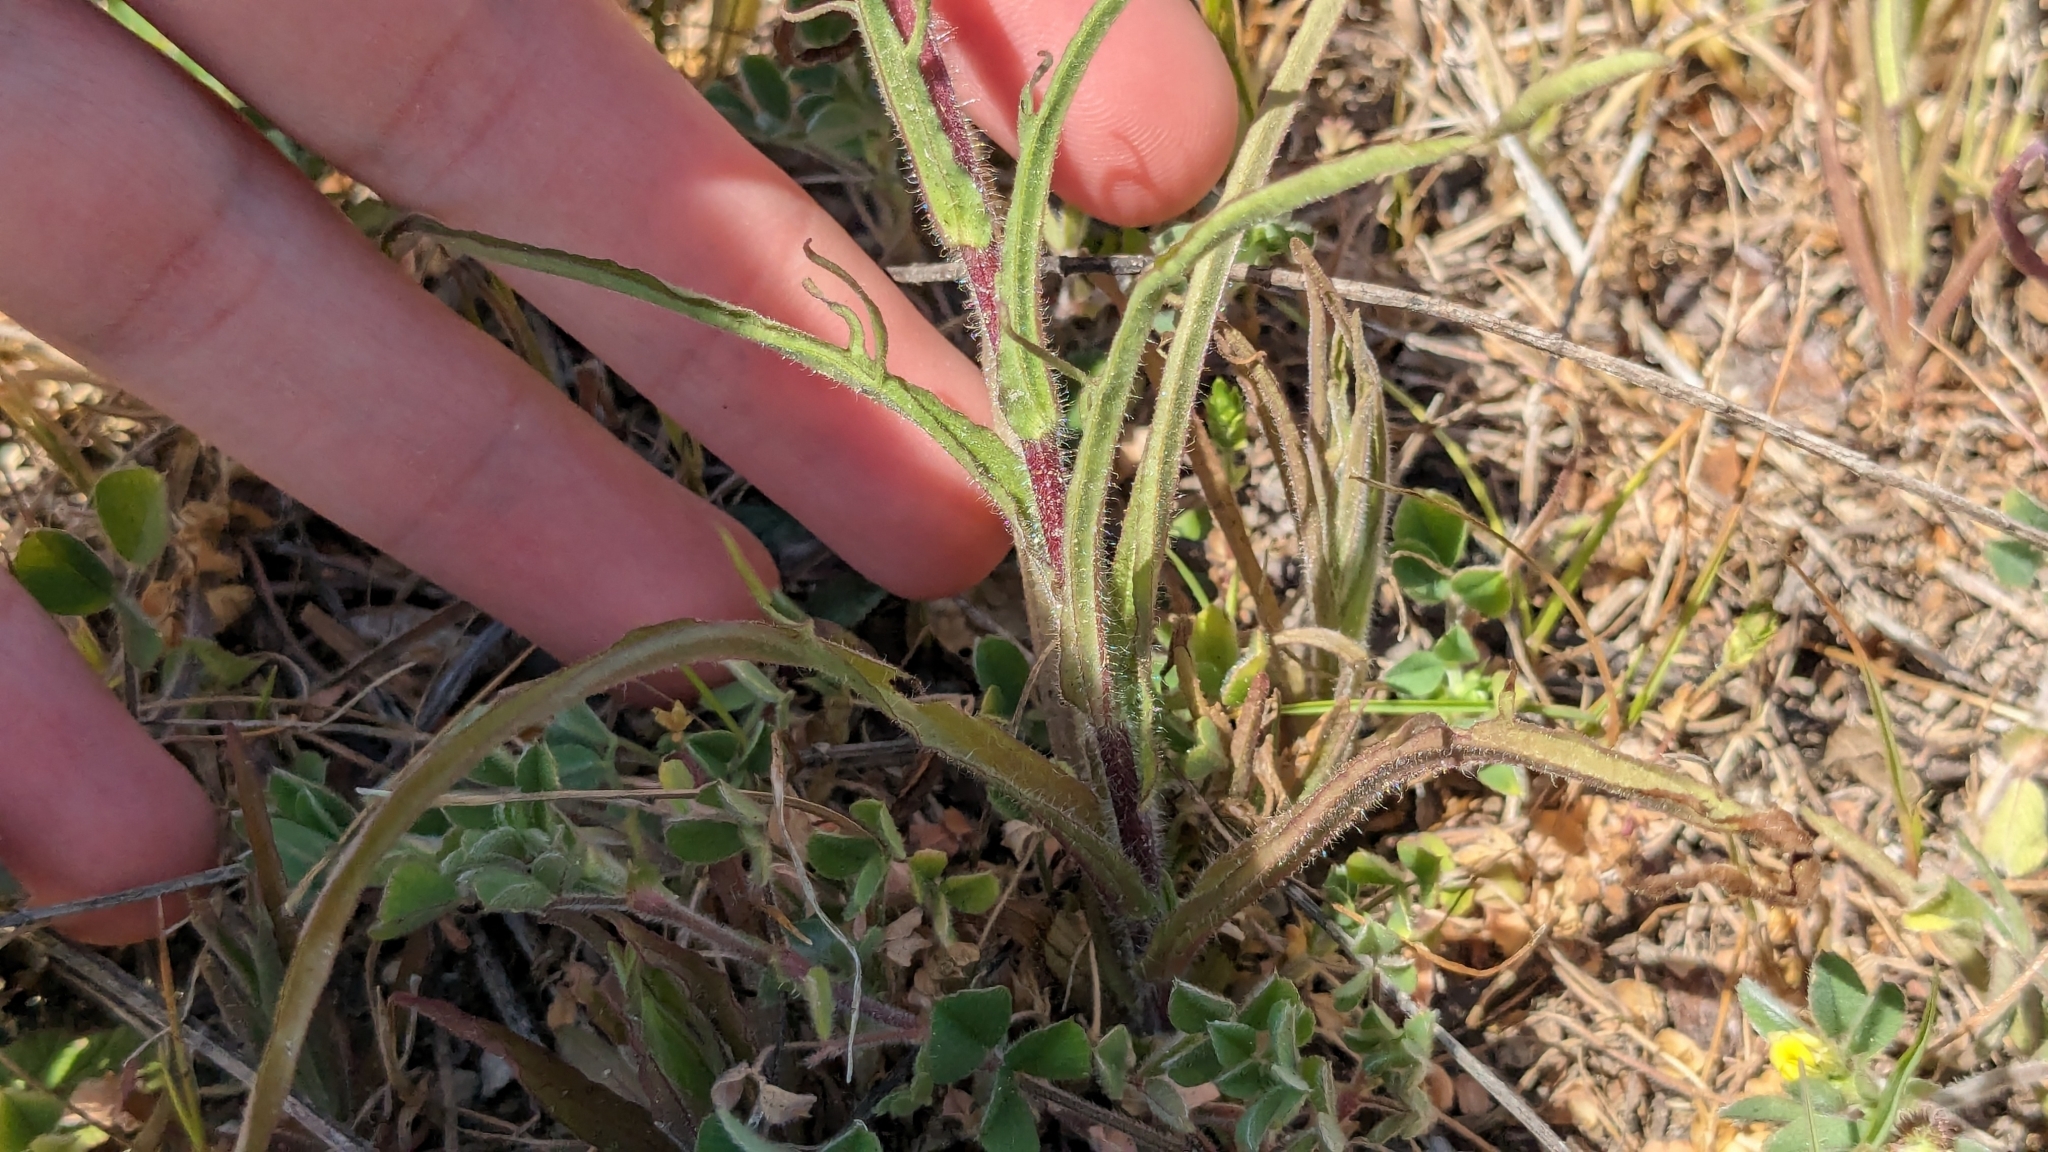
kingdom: Plantae
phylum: Tracheophyta
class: Magnoliopsida
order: Lamiales
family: Orobanchaceae
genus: Castilleja
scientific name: Castilleja indivisa
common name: Texas paintbrush
